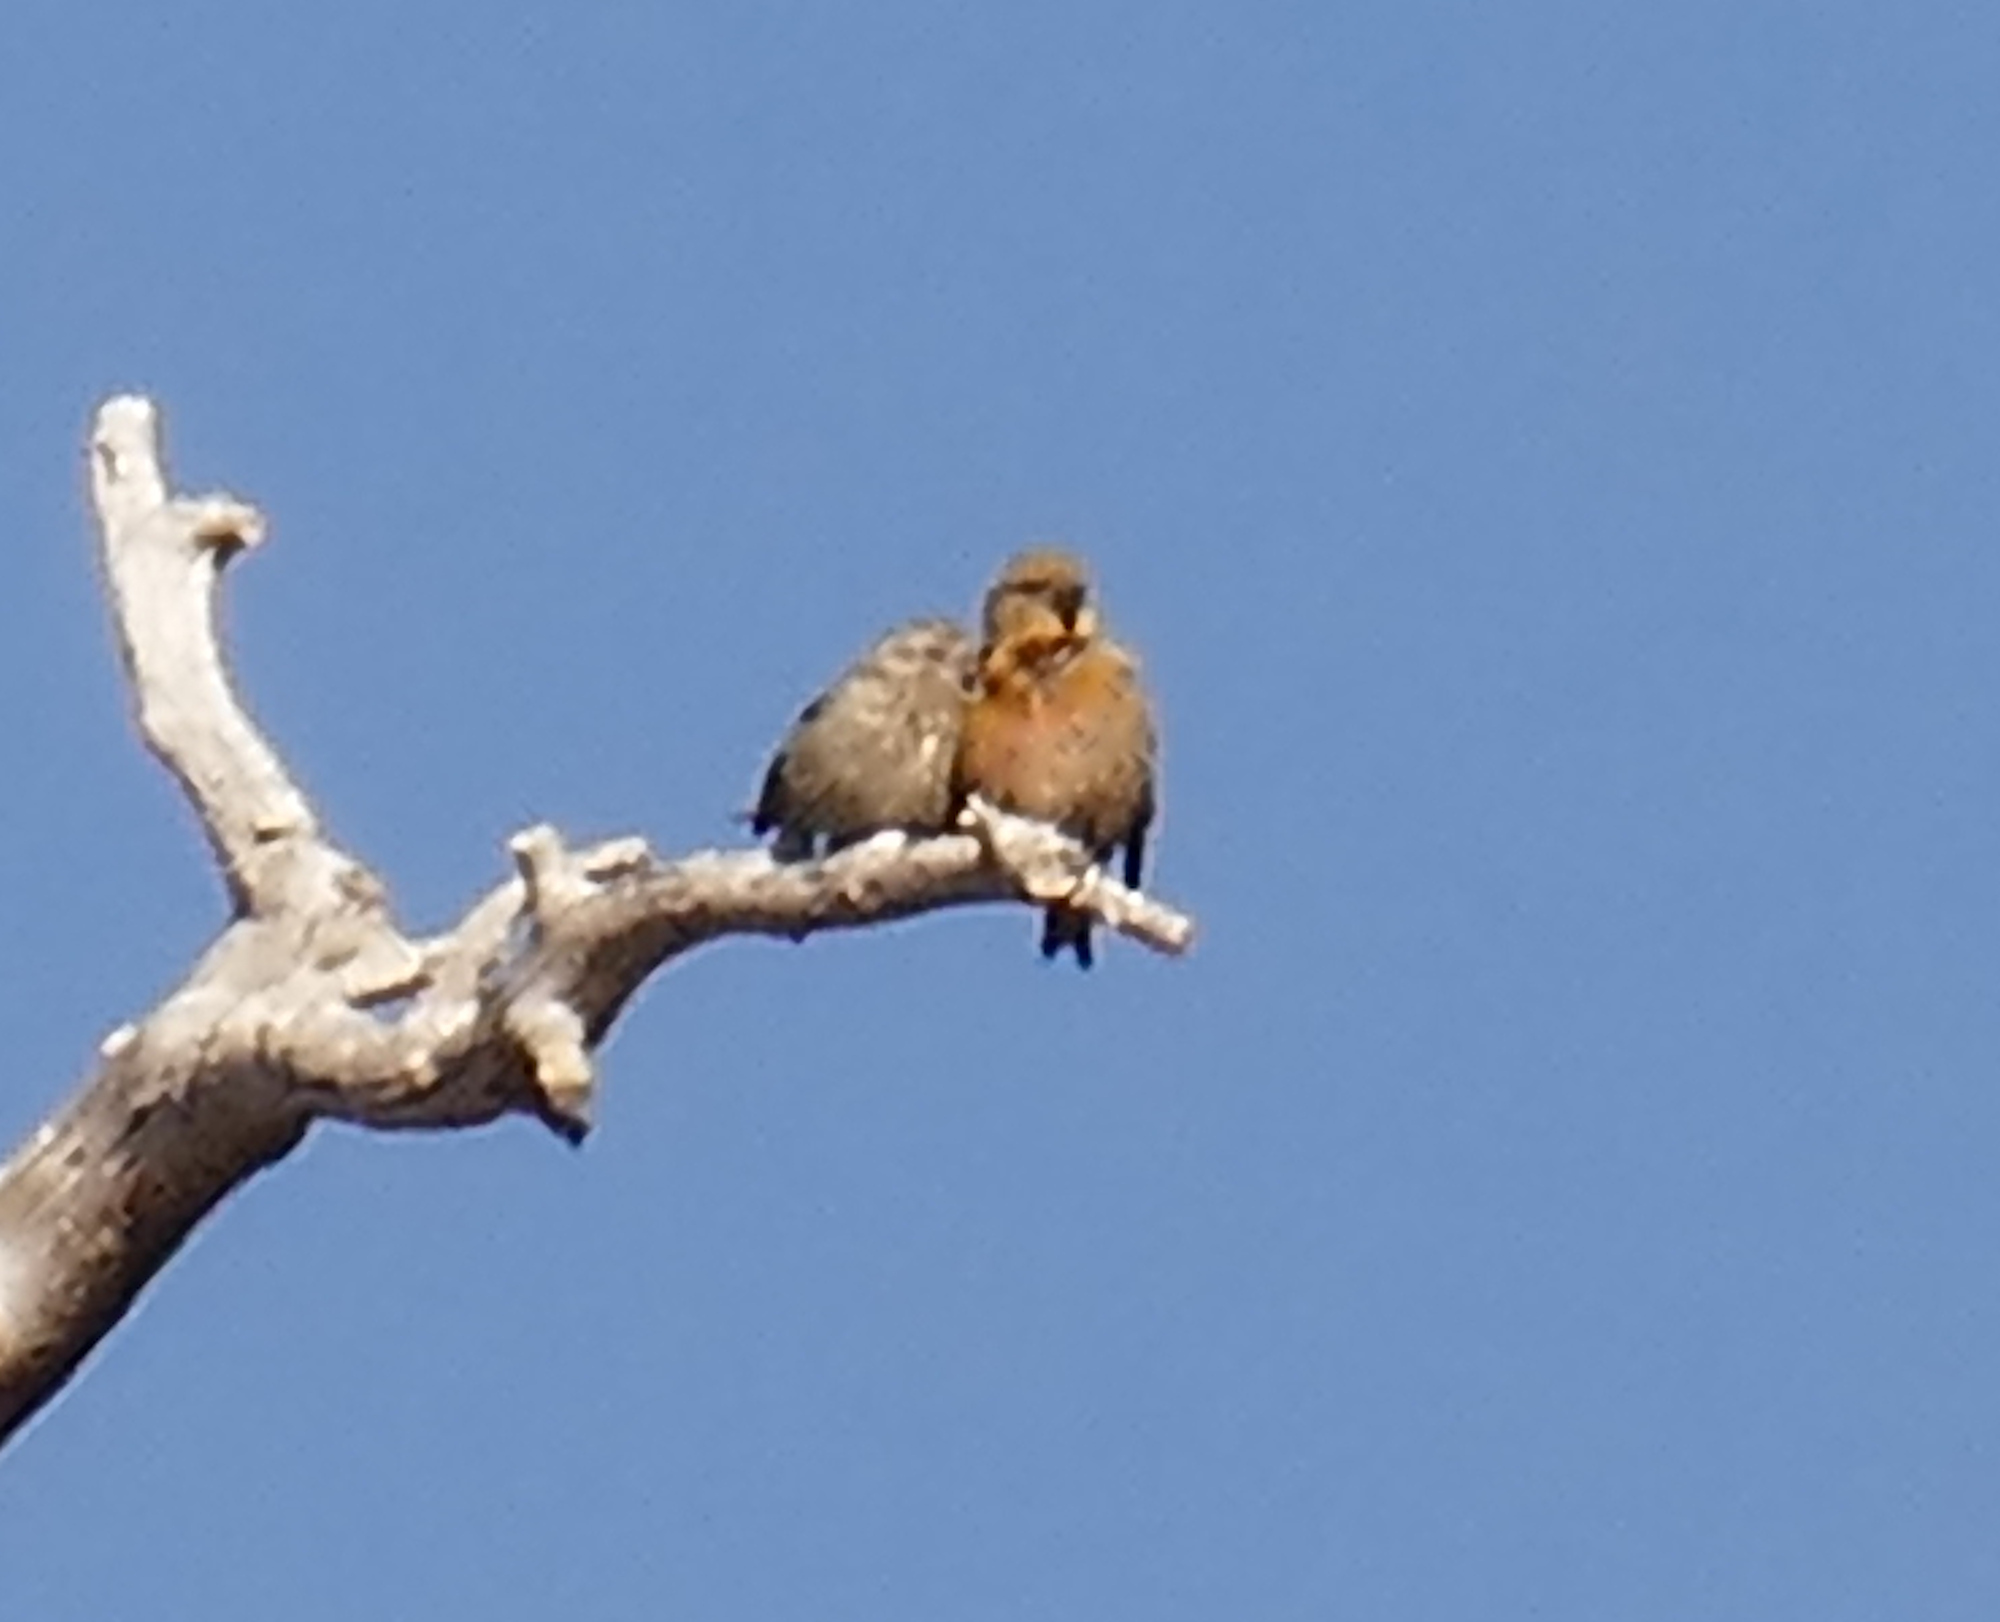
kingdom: Animalia
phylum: Chordata
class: Aves
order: Passeriformes
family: Fringillidae
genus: Loxia
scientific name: Loxia curvirostra
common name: Red crossbill
